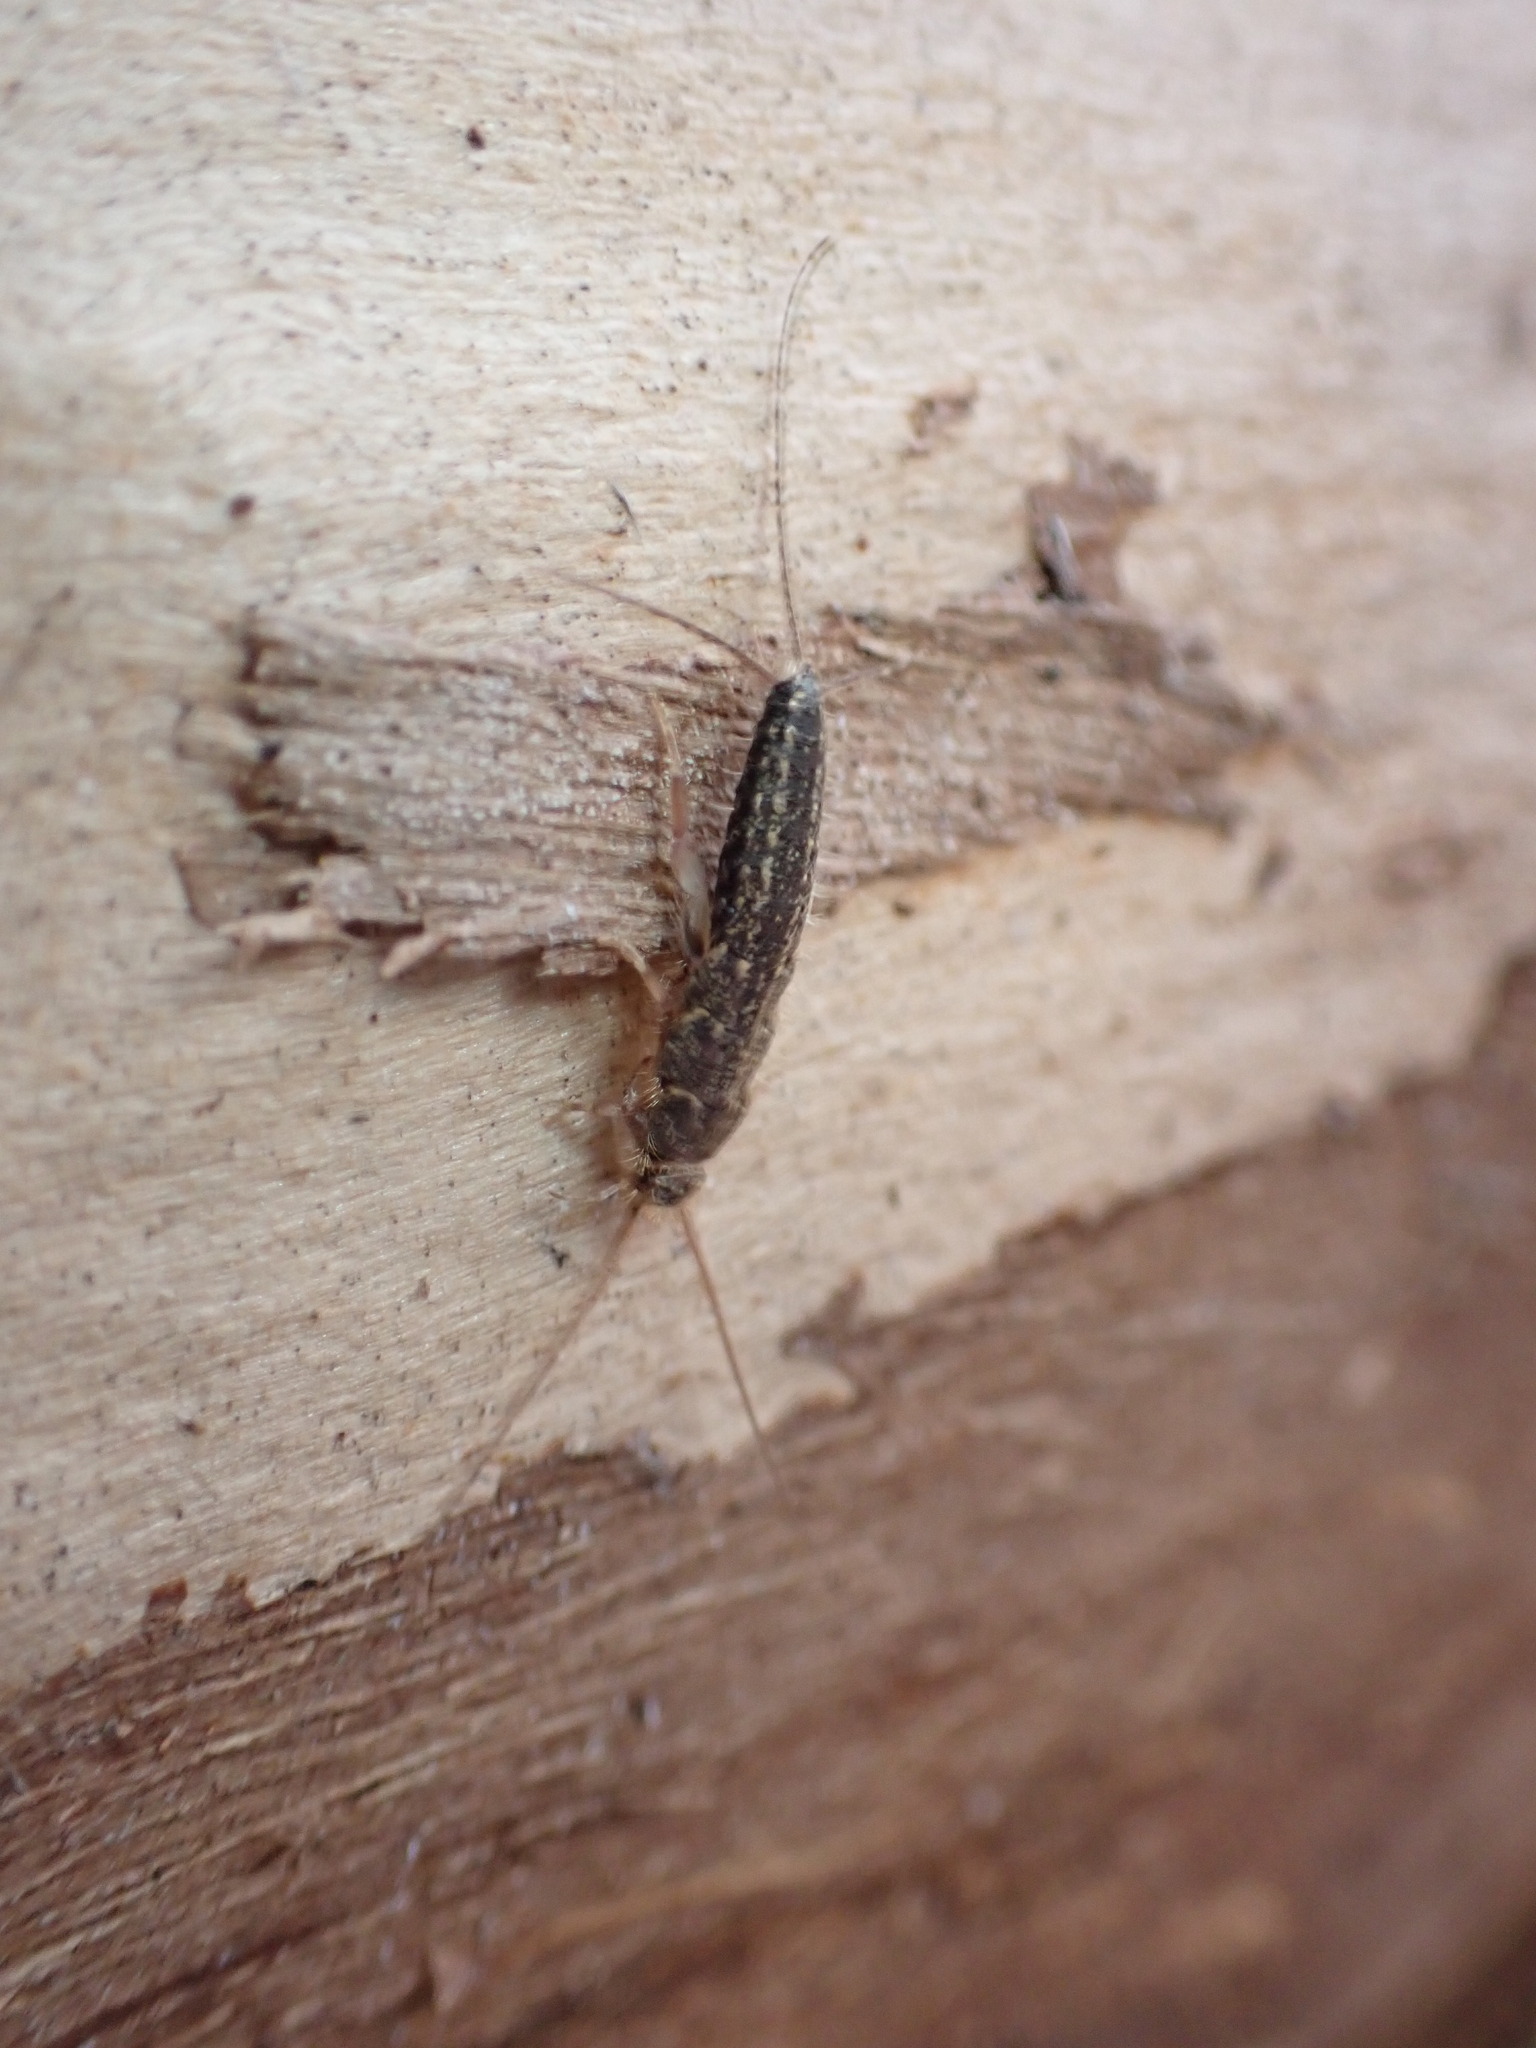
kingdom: Animalia
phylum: Arthropoda
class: Insecta
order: Zygentoma
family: Lepismatidae
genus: Ctenolepisma
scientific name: Ctenolepisma lineata
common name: Four-lined silverfish
